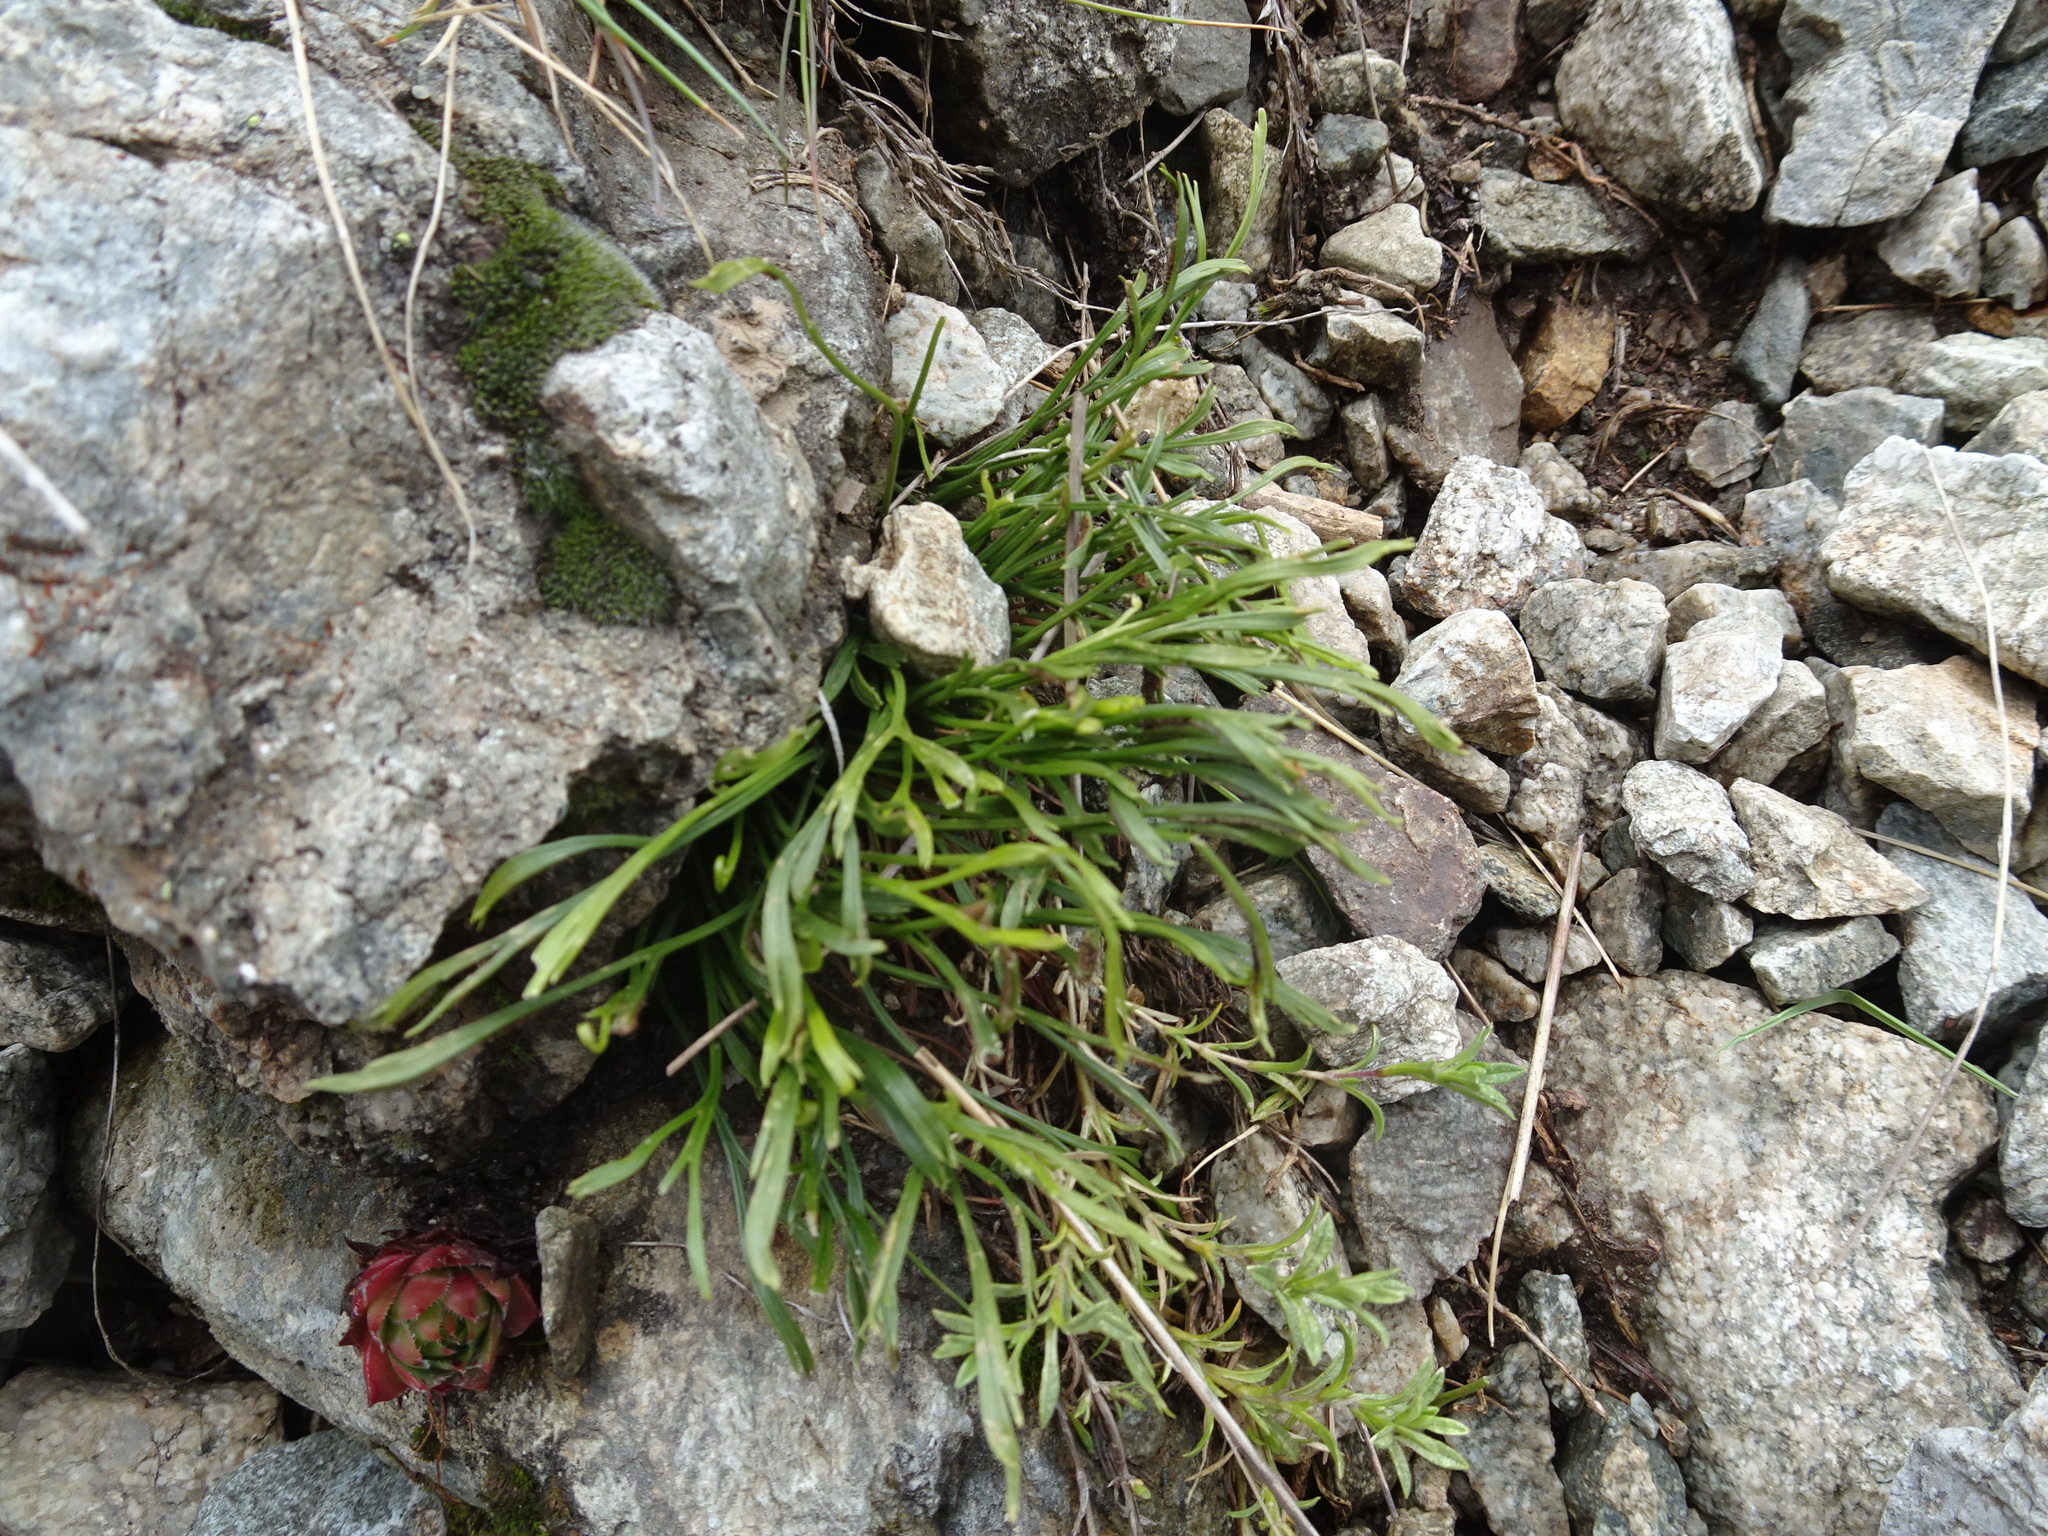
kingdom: Plantae
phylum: Tracheophyta
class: Polypodiopsida
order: Polypodiales
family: Aspleniaceae
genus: Asplenium
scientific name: Asplenium septentrionale
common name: Forked spleenwort
